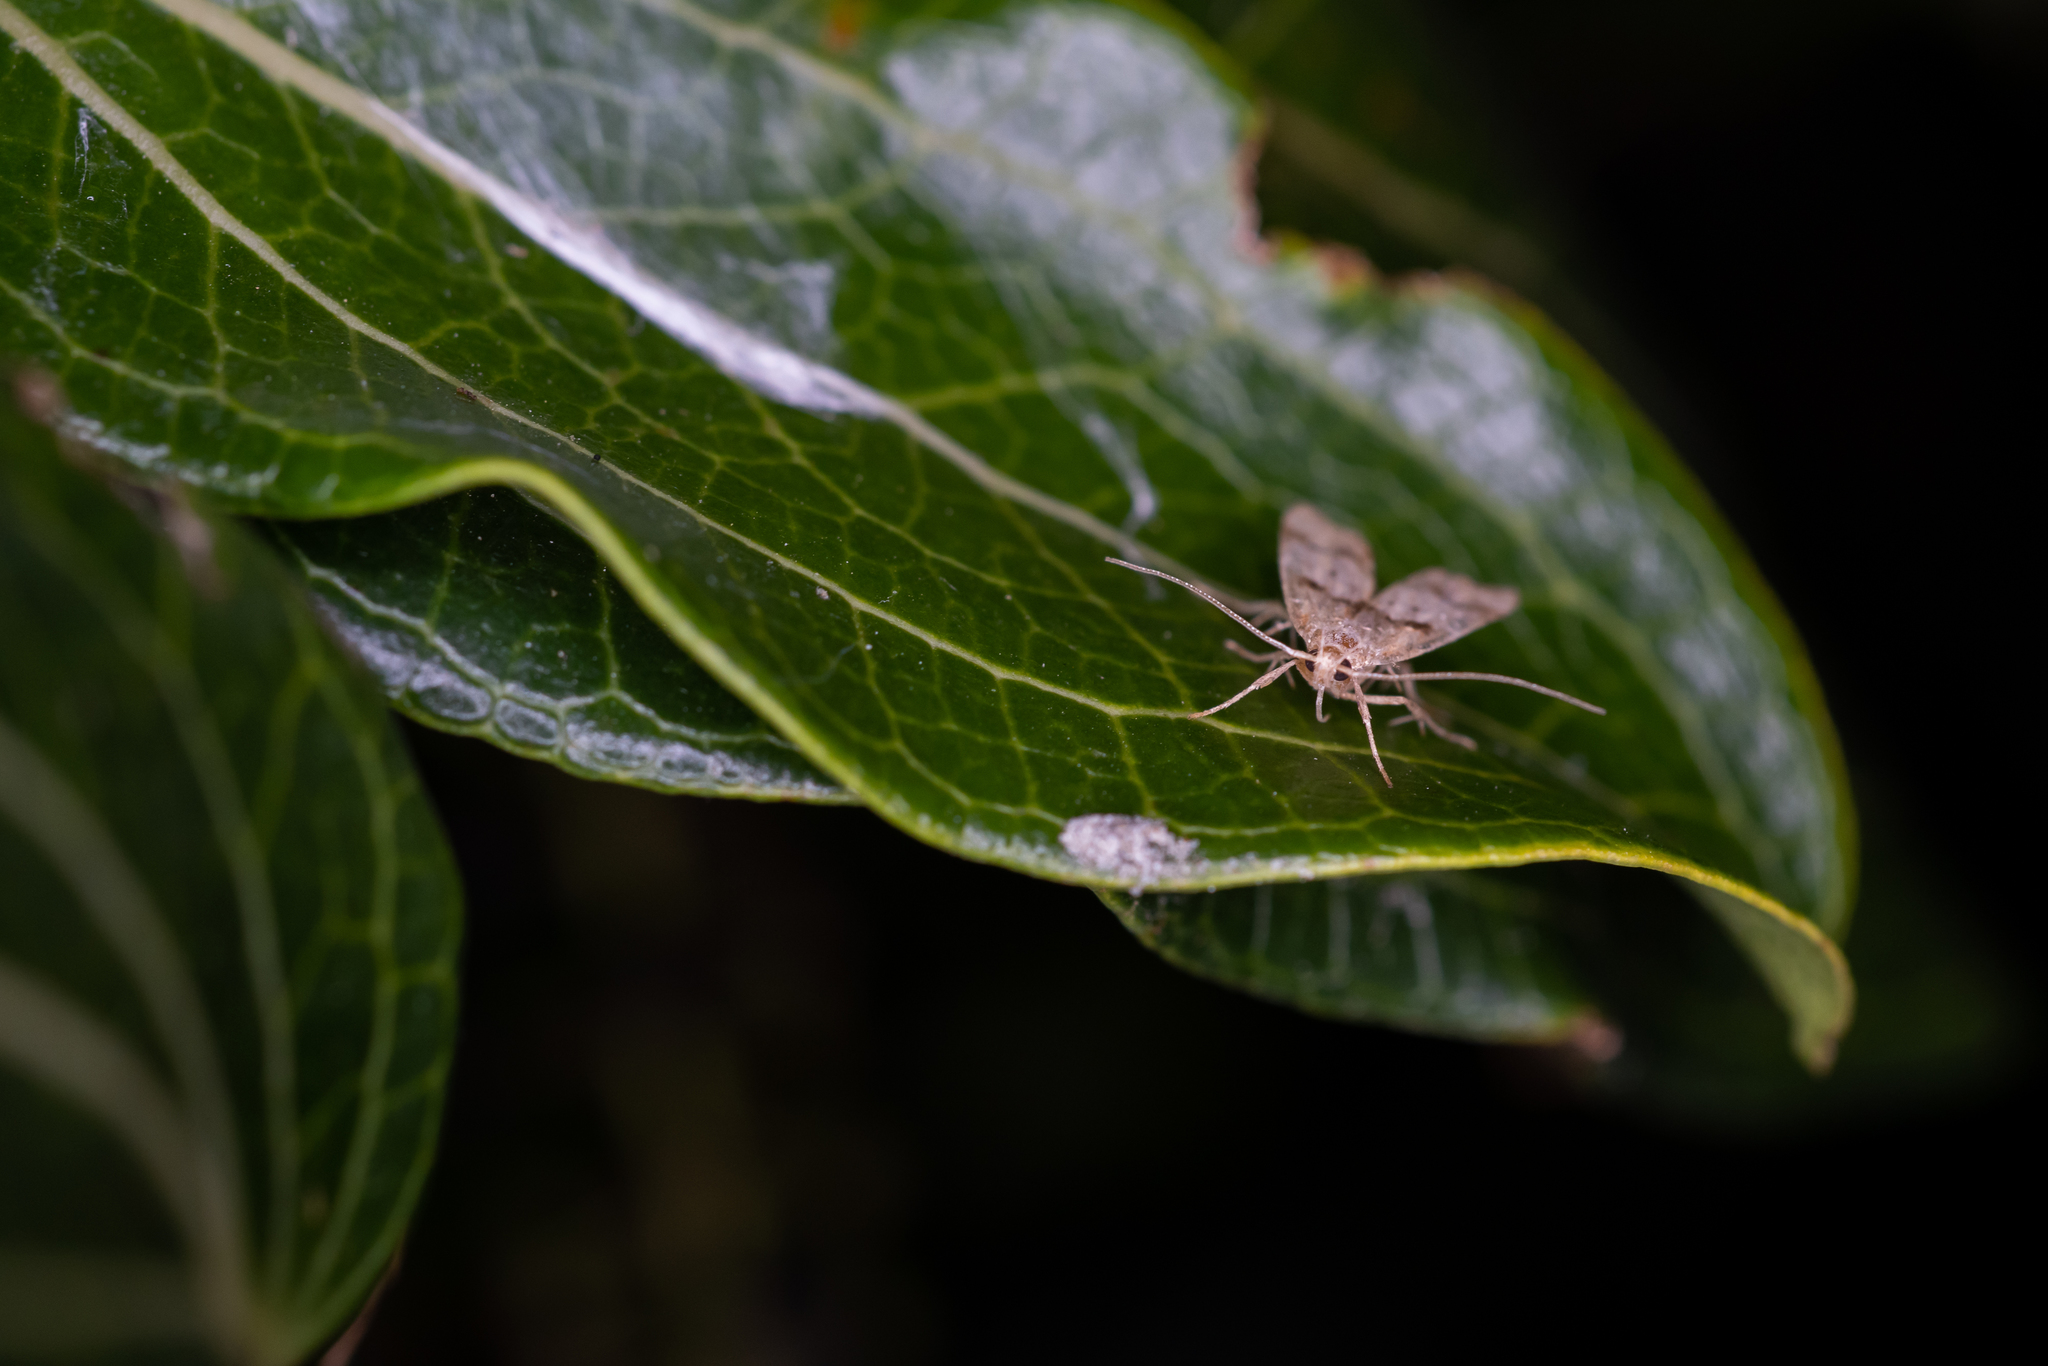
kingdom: Animalia
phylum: Arthropoda
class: Insecta
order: Lepidoptera
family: Oecophoridae
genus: Gymnobathra
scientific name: Gymnobathra hamatella
